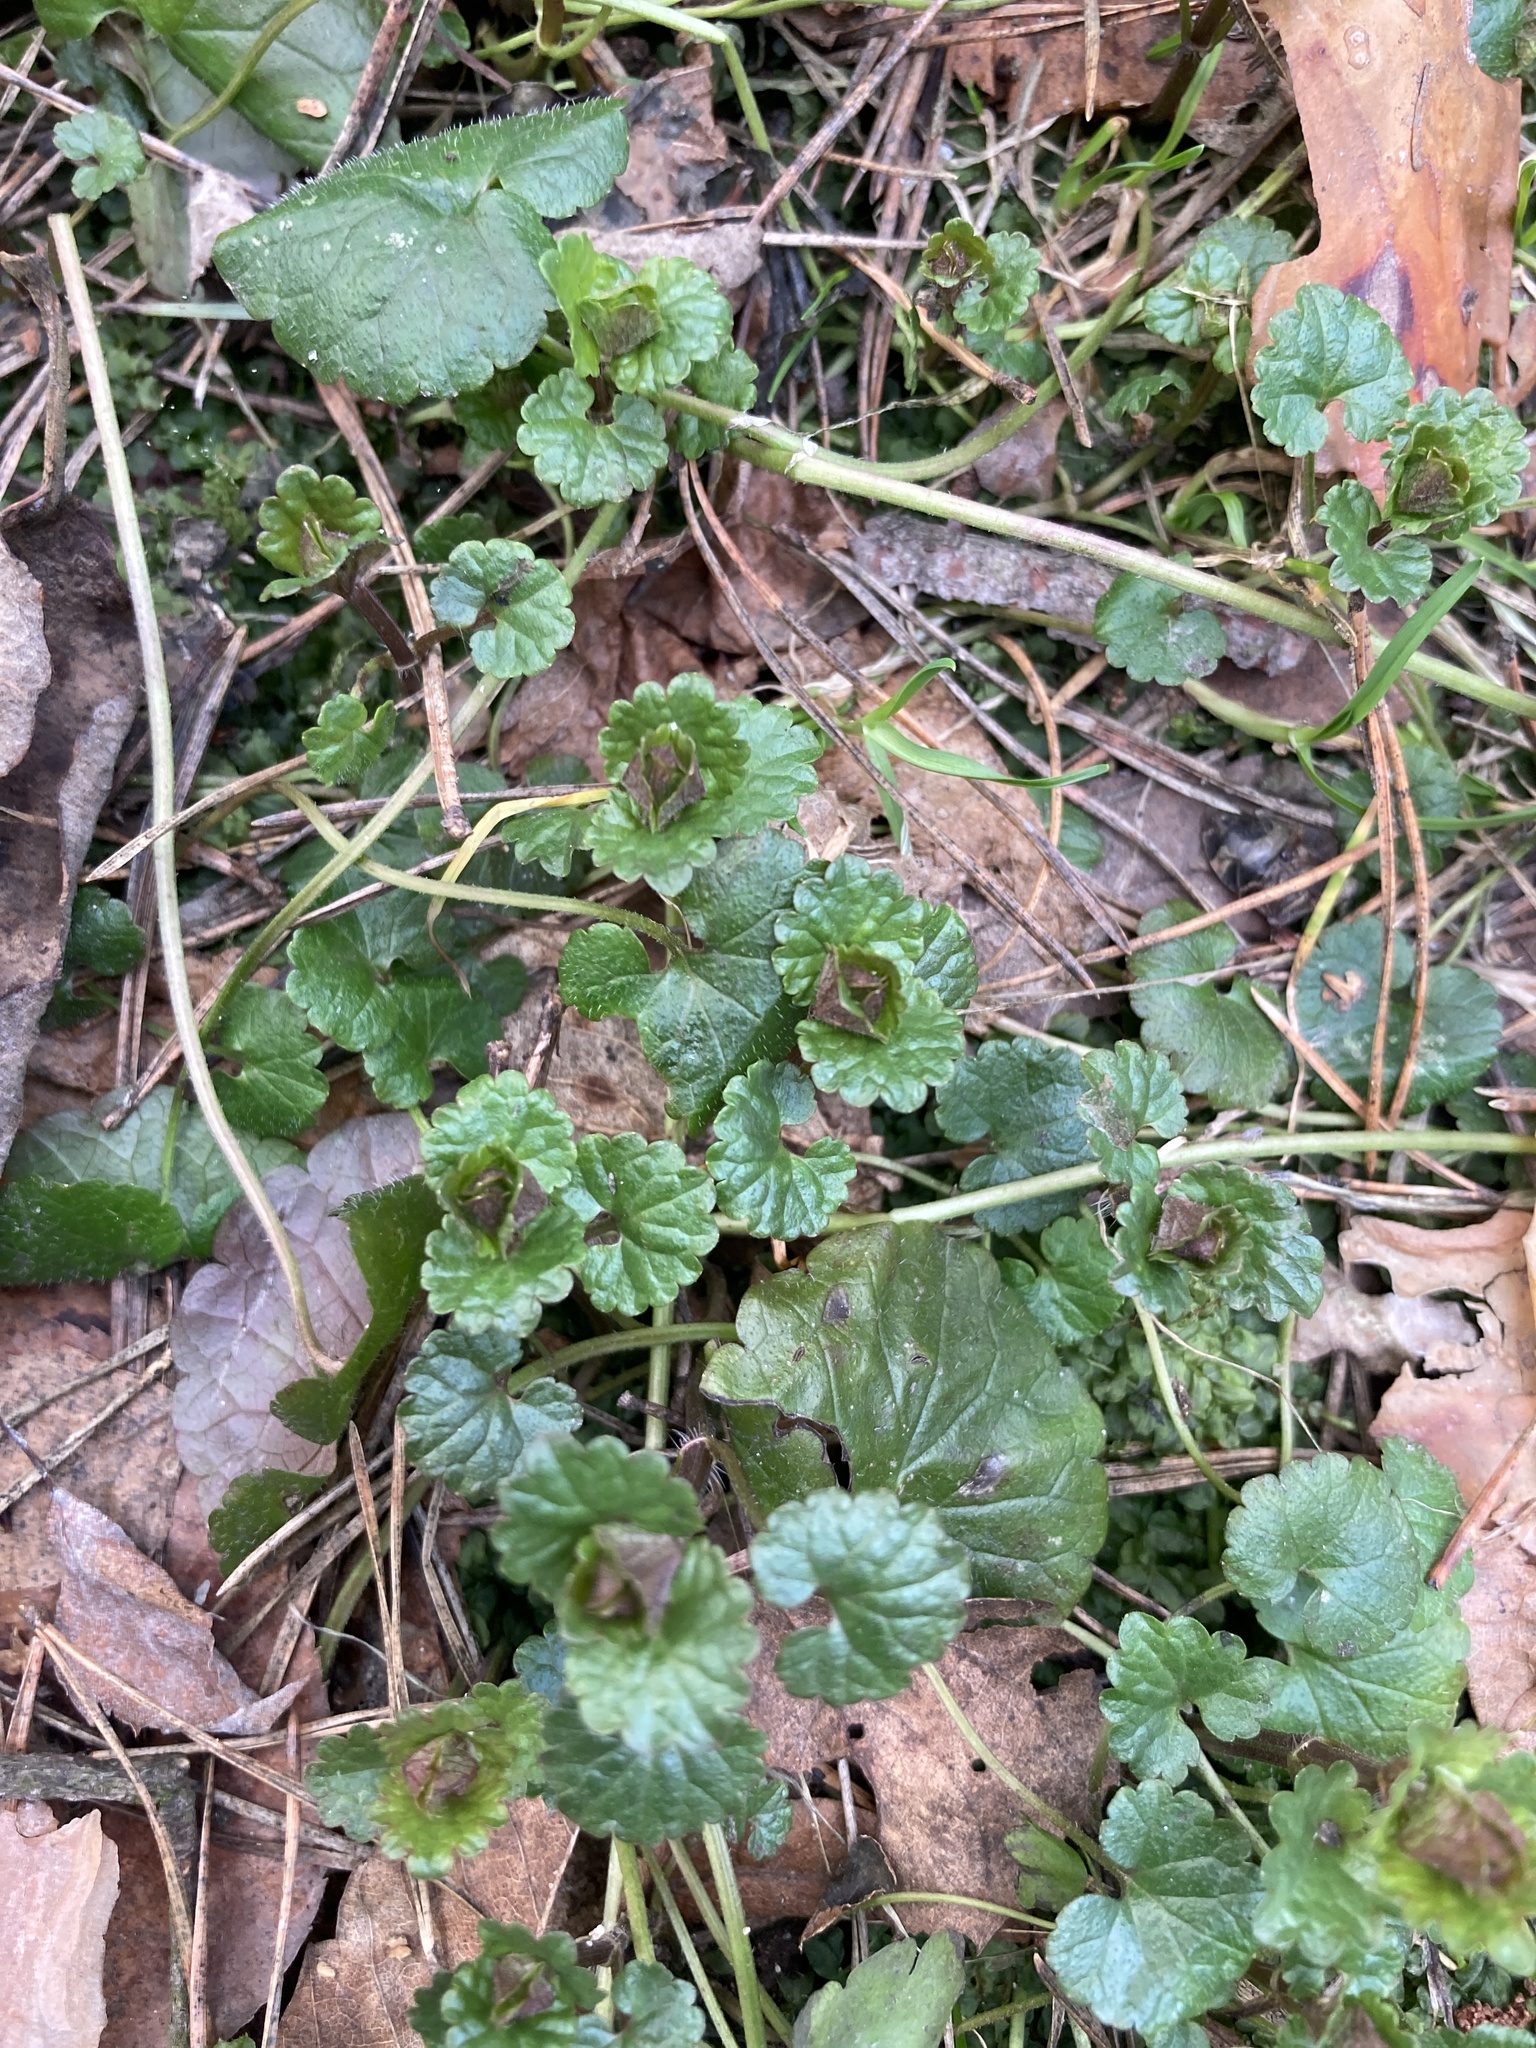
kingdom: Plantae
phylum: Tracheophyta
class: Magnoliopsida
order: Lamiales
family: Lamiaceae
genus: Glechoma
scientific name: Glechoma hederacea
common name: Ground ivy
